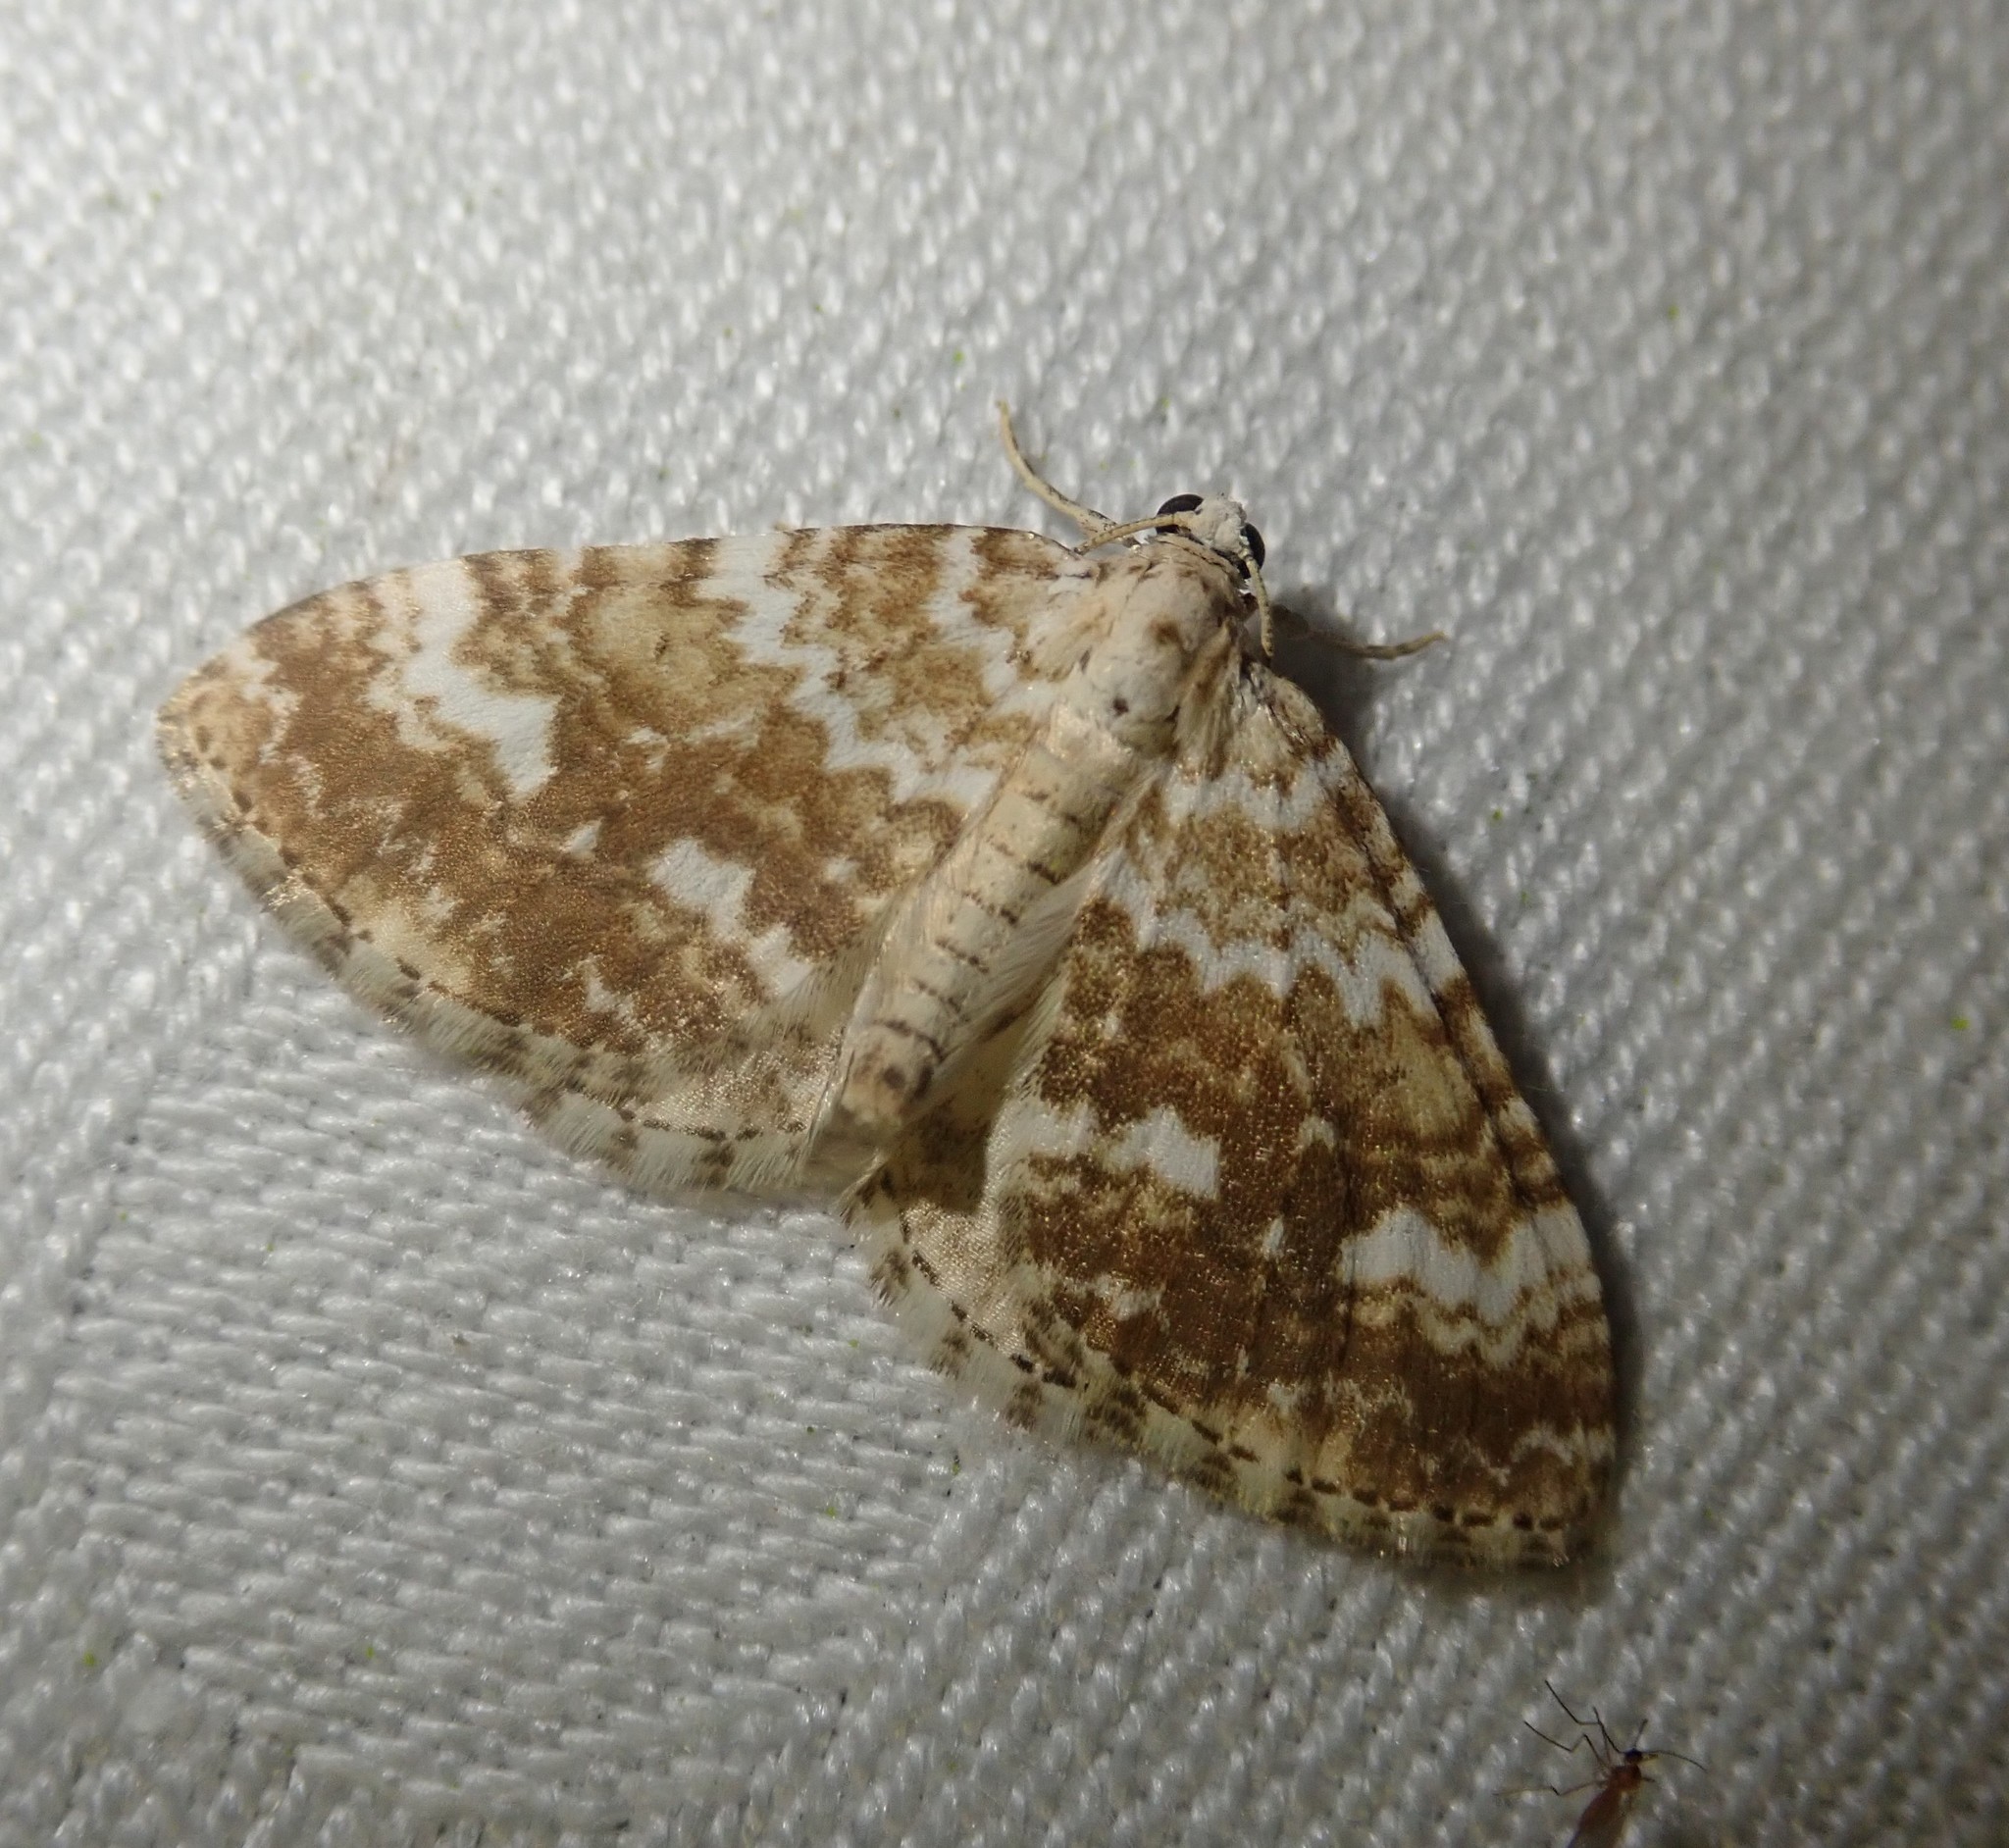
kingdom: Animalia
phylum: Arthropoda
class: Insecta
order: Lepidoptera
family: Geometridae
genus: Perizoma
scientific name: Perizoma flavofasciata
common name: Sandy carpet
